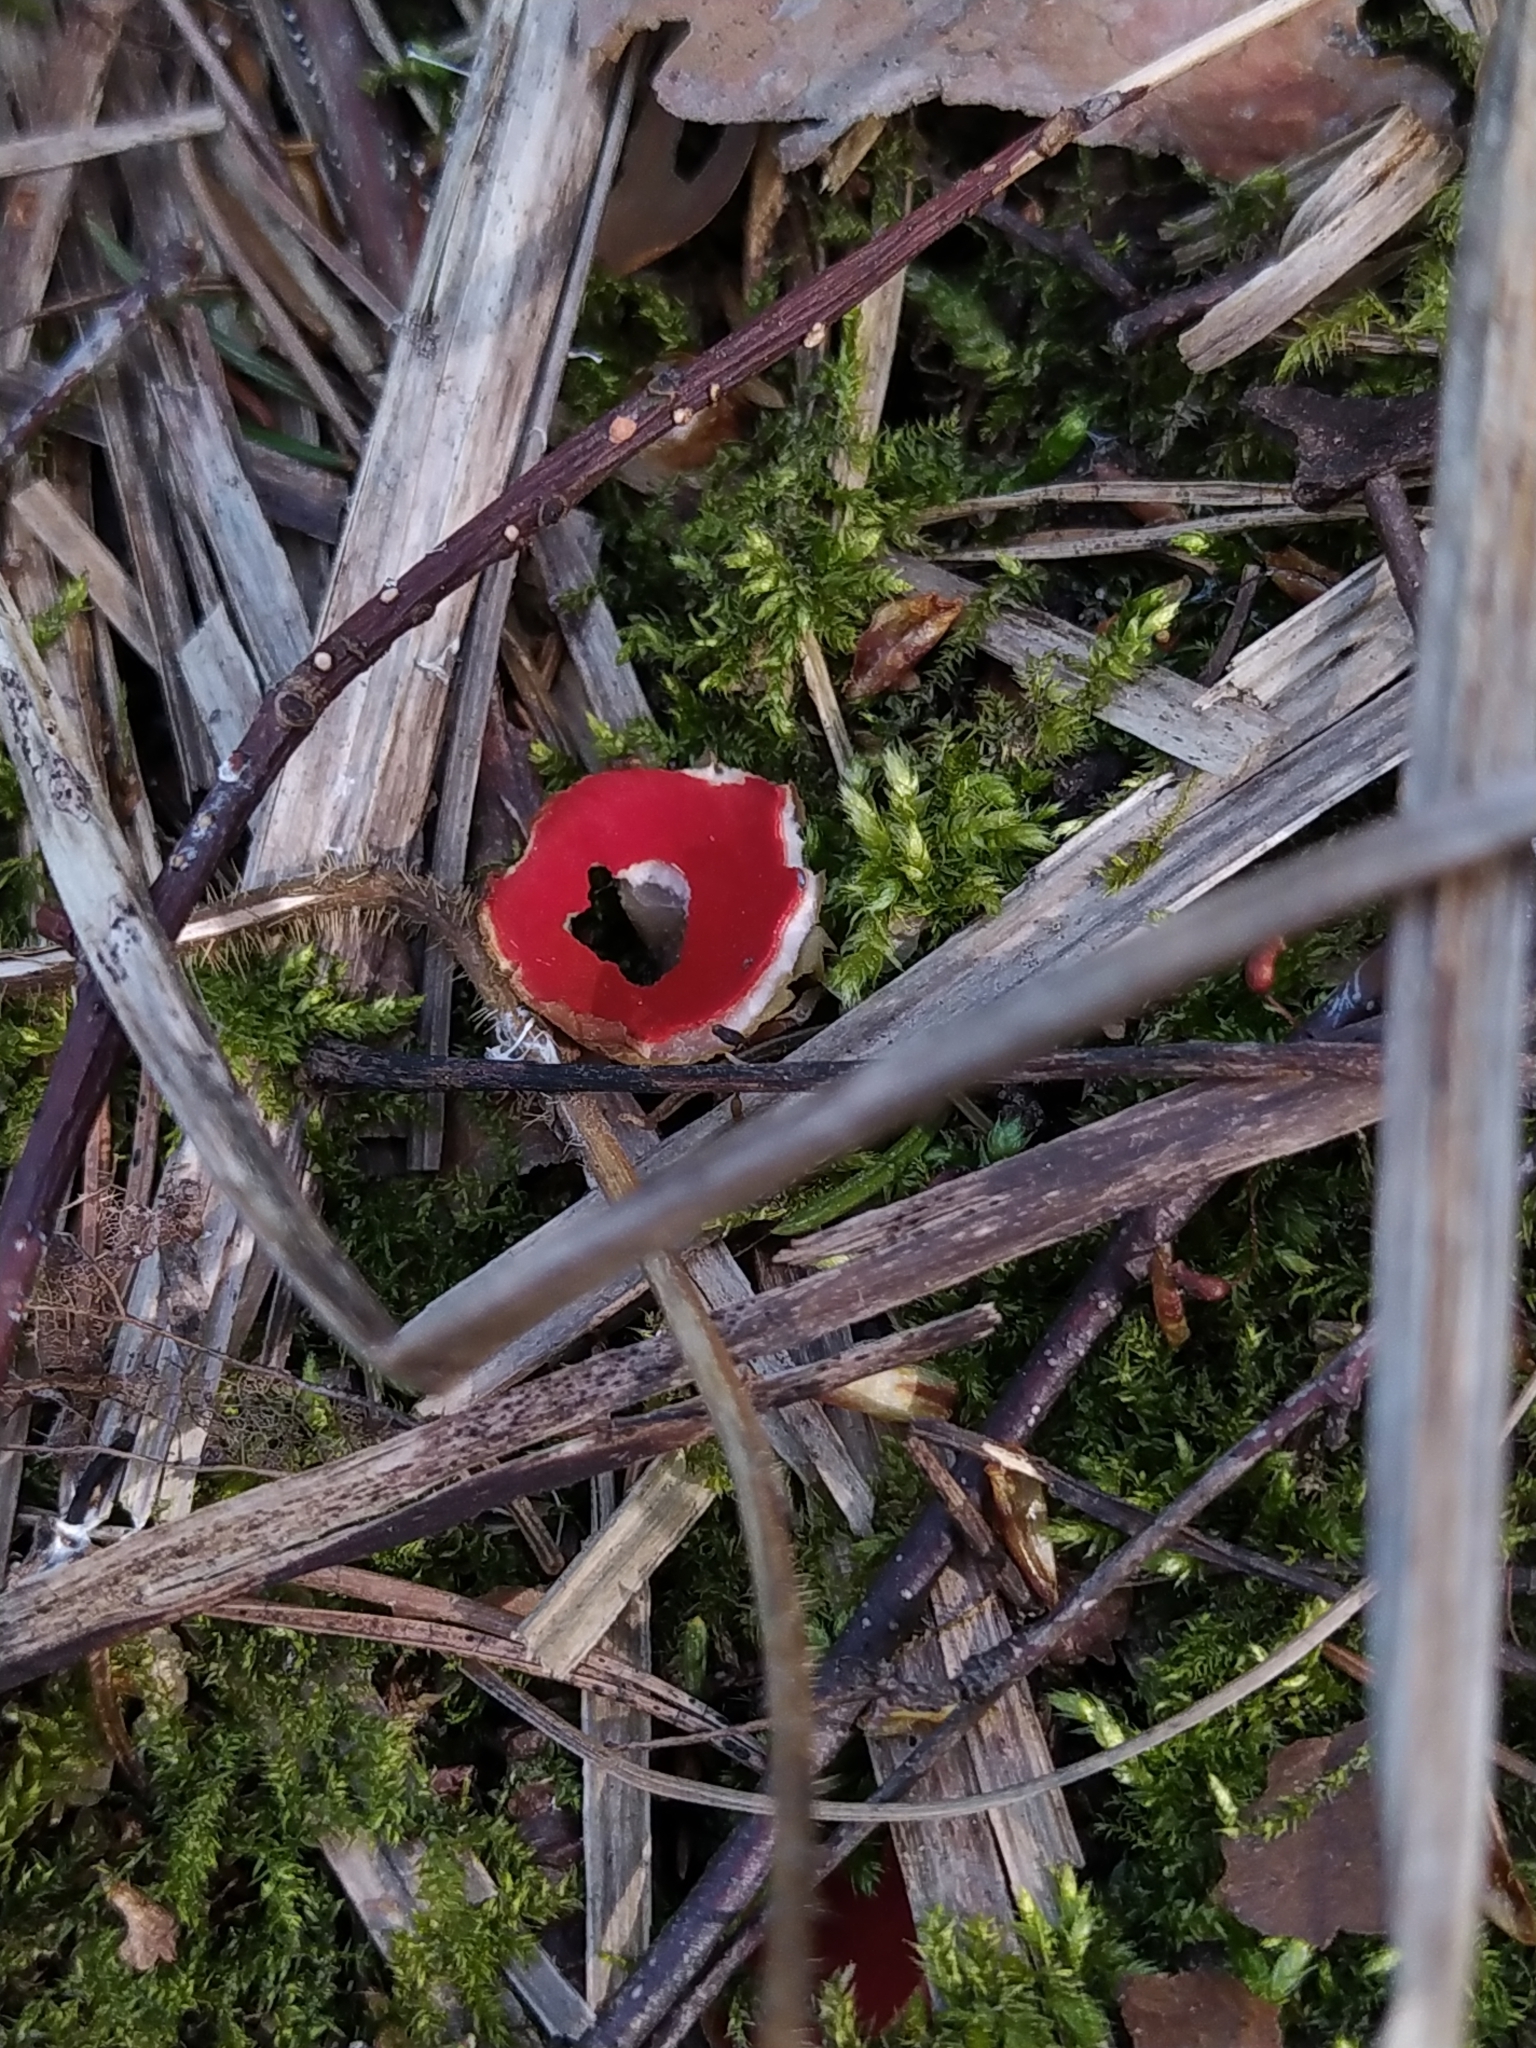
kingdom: Fungi
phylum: Ascomycota
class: Pezizomycetes
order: Pezizales
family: Sarcoscyphaceae
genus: Sarcoscypha
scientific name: Sarcoscypha austriaca
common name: Scarlet elfcup
